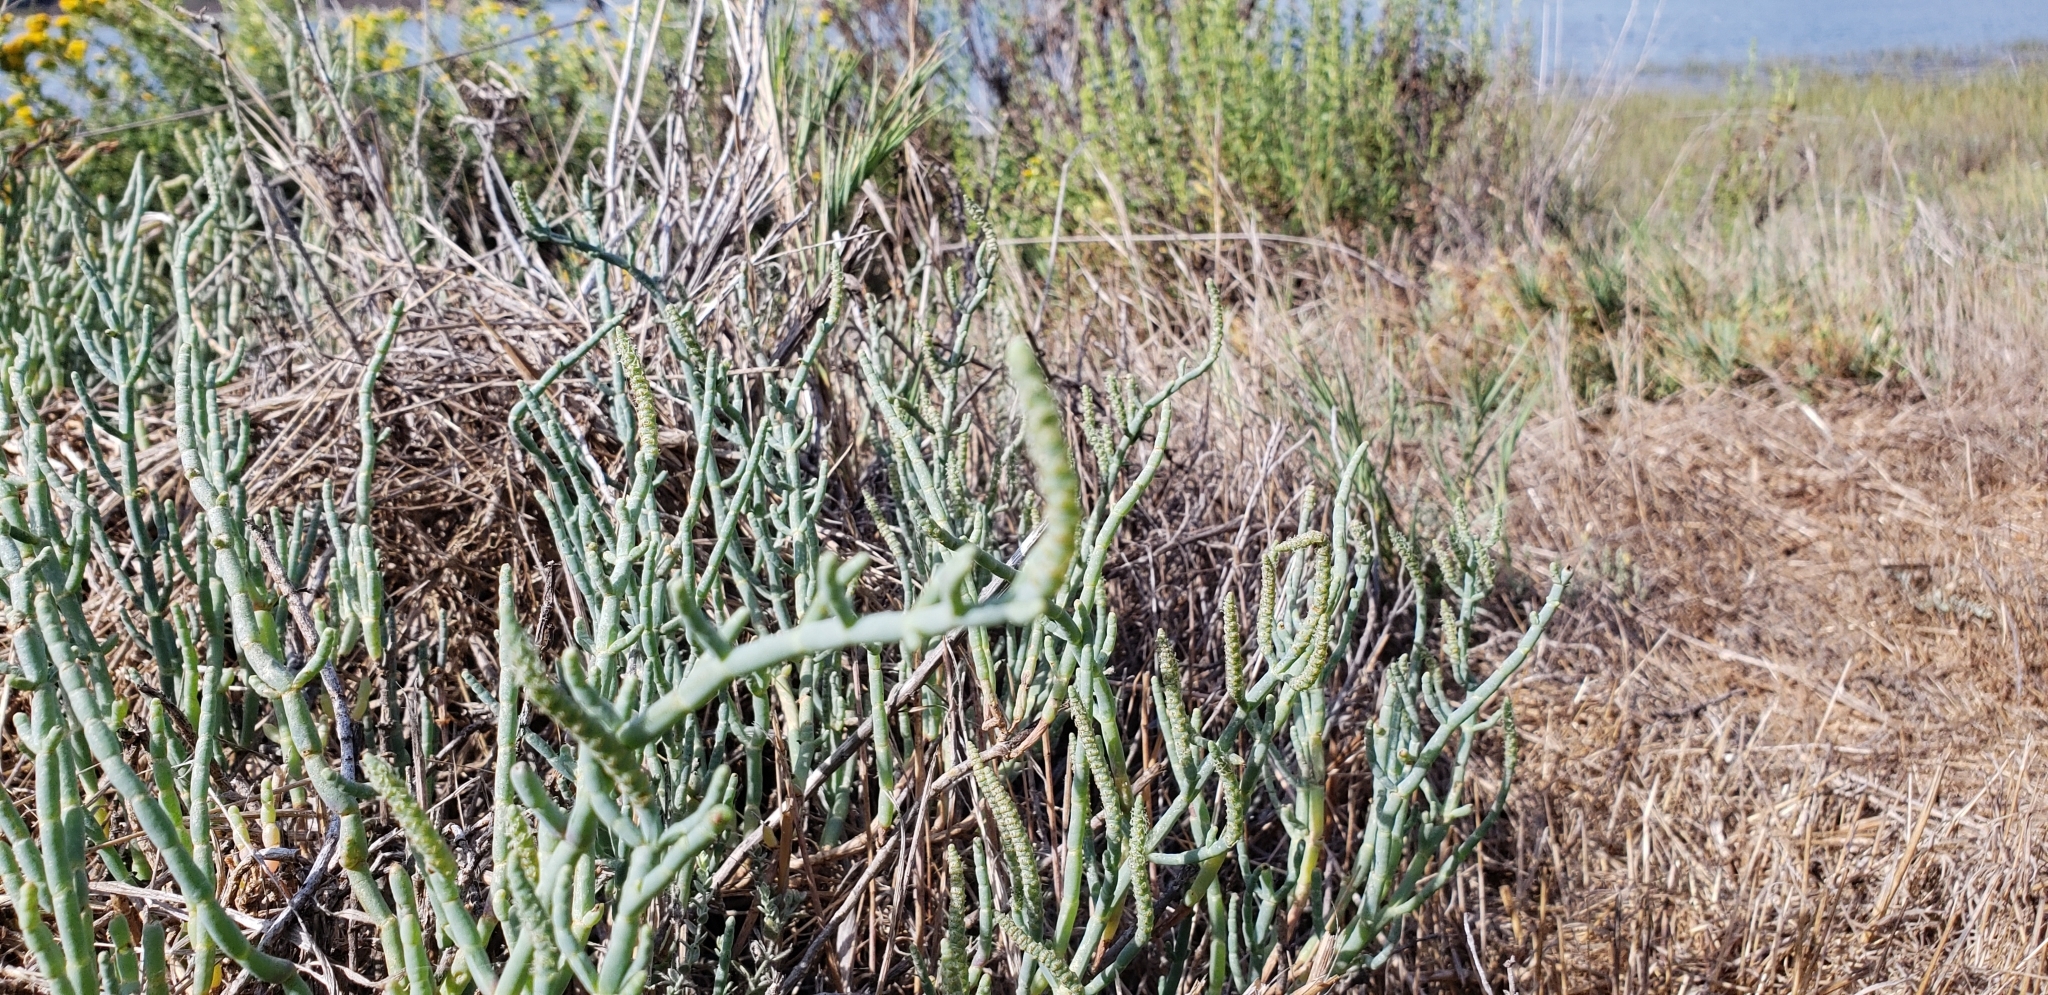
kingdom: Plantae
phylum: Tracheophyta
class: Magnoliopsida
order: Caryophyllales
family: Amaranthaceae
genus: Salicornia
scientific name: Salicornia pacifica
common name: Pacific glasswort
